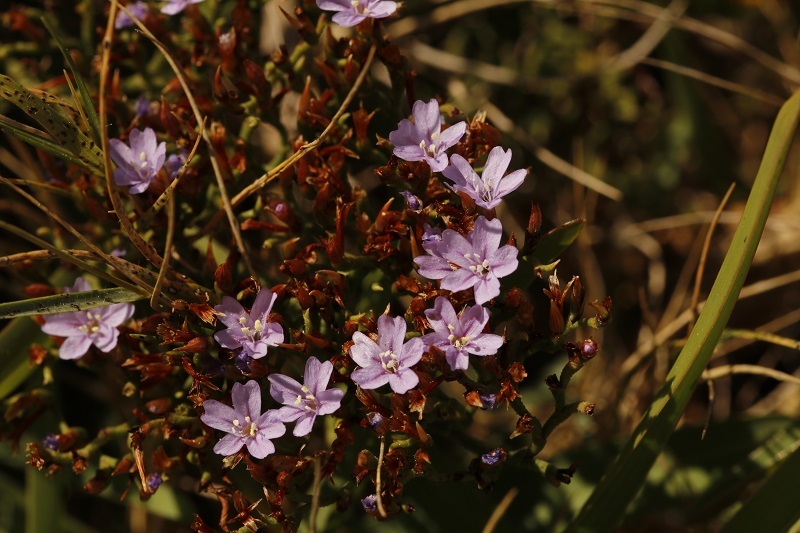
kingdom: Plantae
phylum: Tracheophyta
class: Magnoliopsida
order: Caryophyllales
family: Plumbaginaceae
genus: Limonium
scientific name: Limonium scabrum
